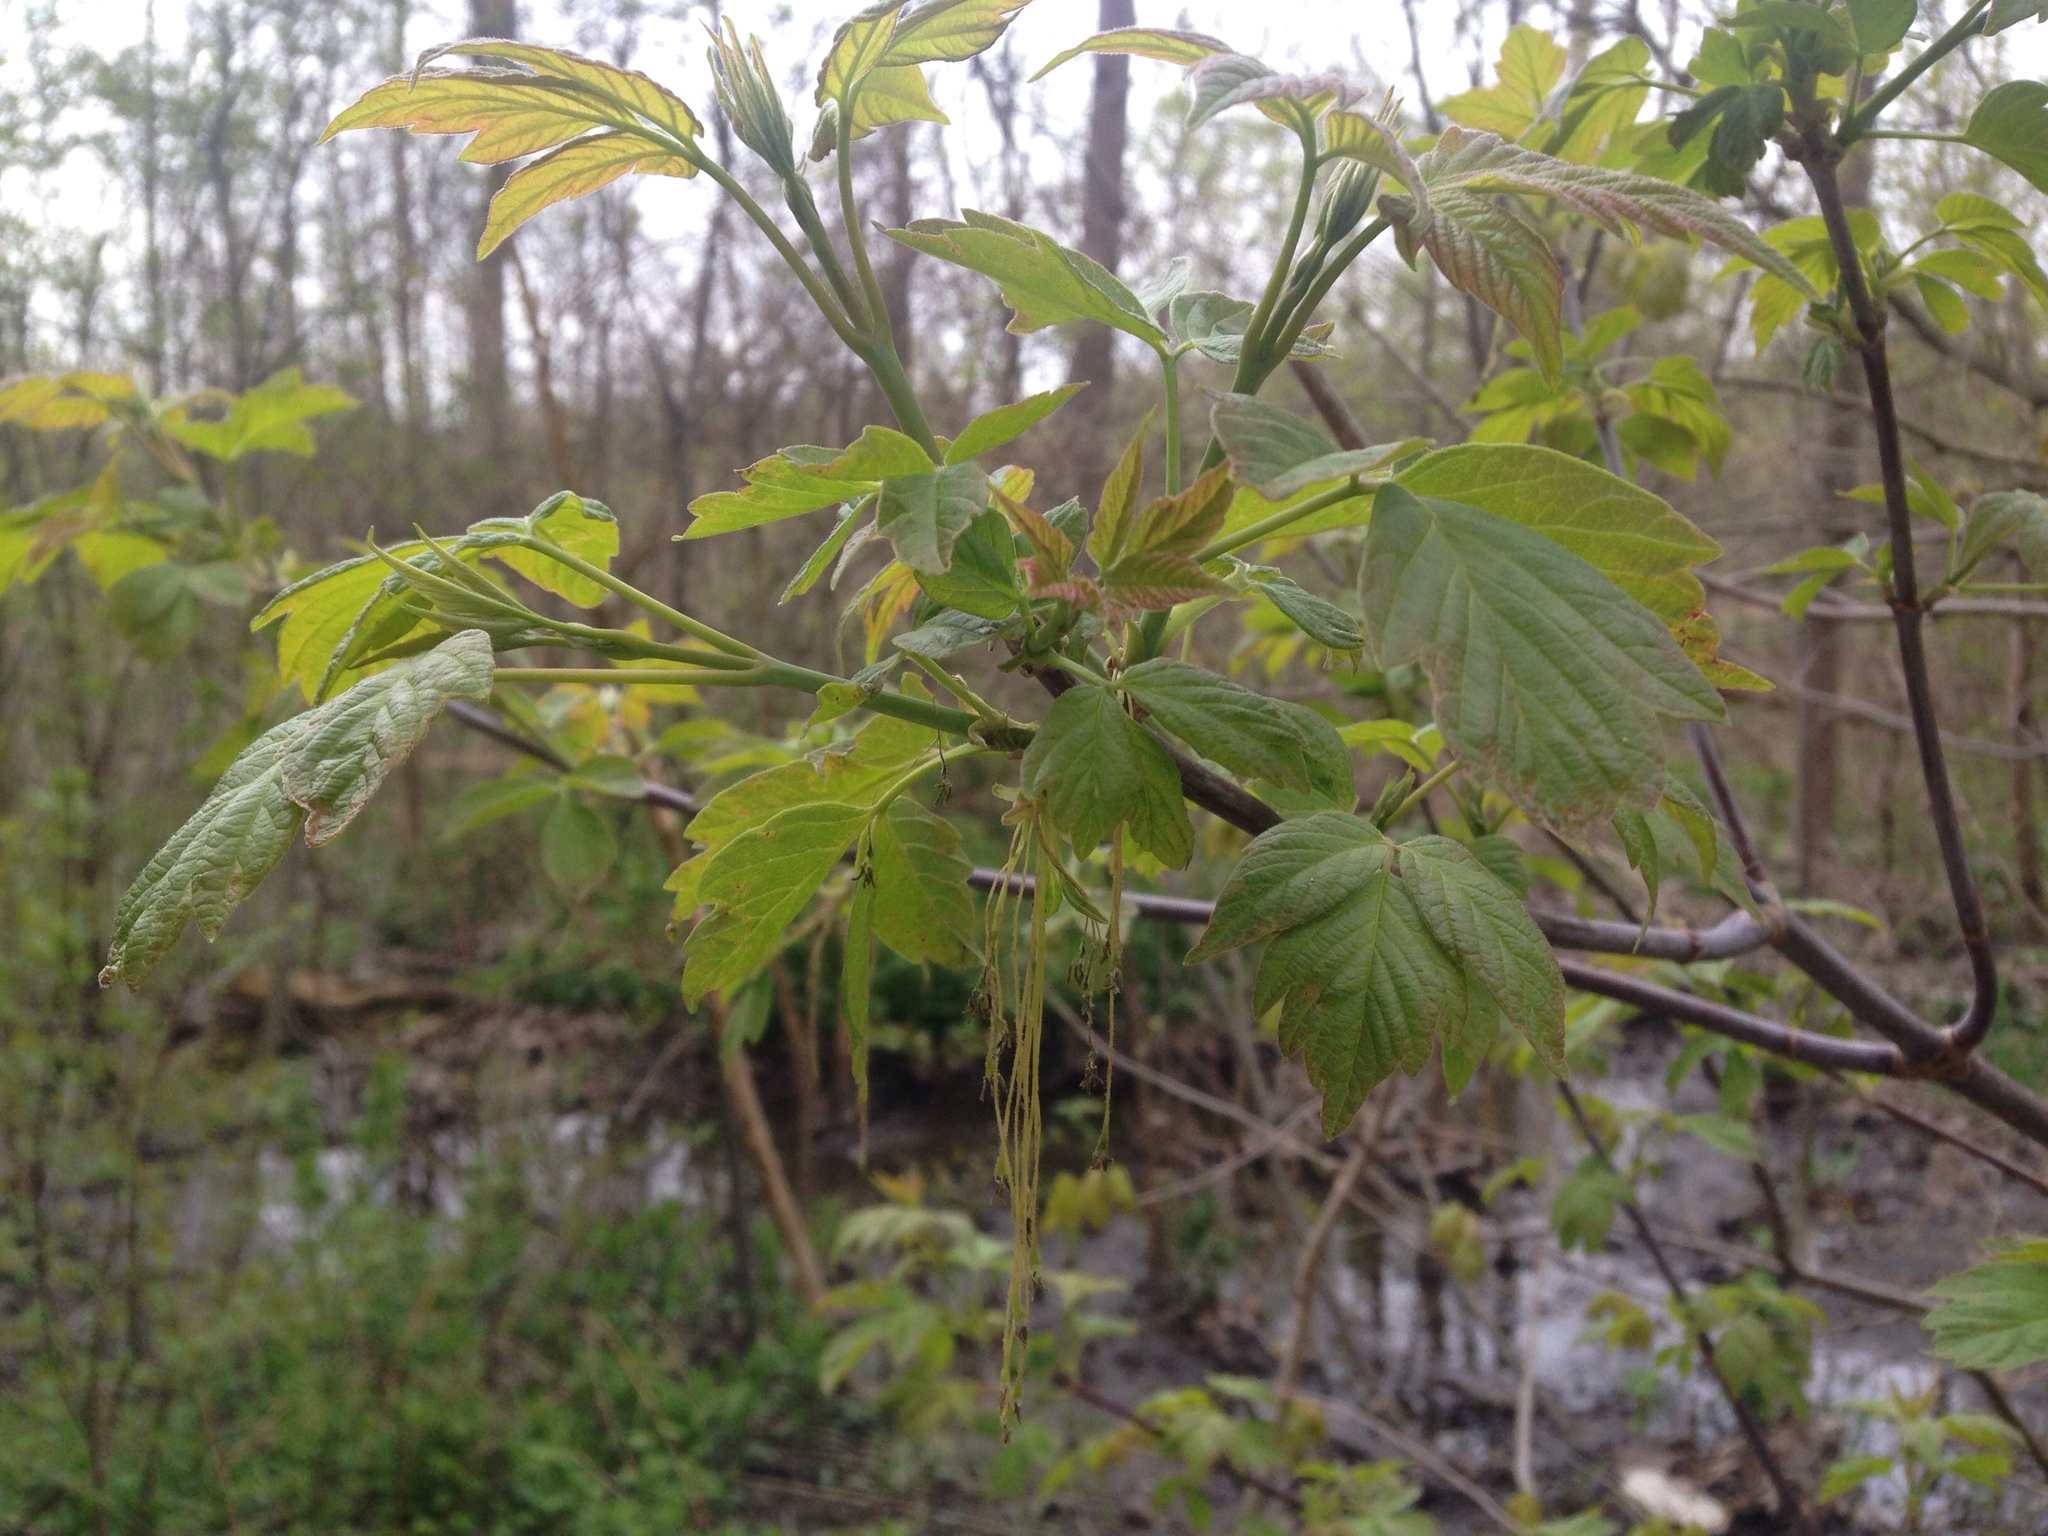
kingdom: Plantae
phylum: Tracheophyta
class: Magnoliopsida
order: Sapindales
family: Sapindaceae
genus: Acer
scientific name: Acer negundo
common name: Ashleaf maple
